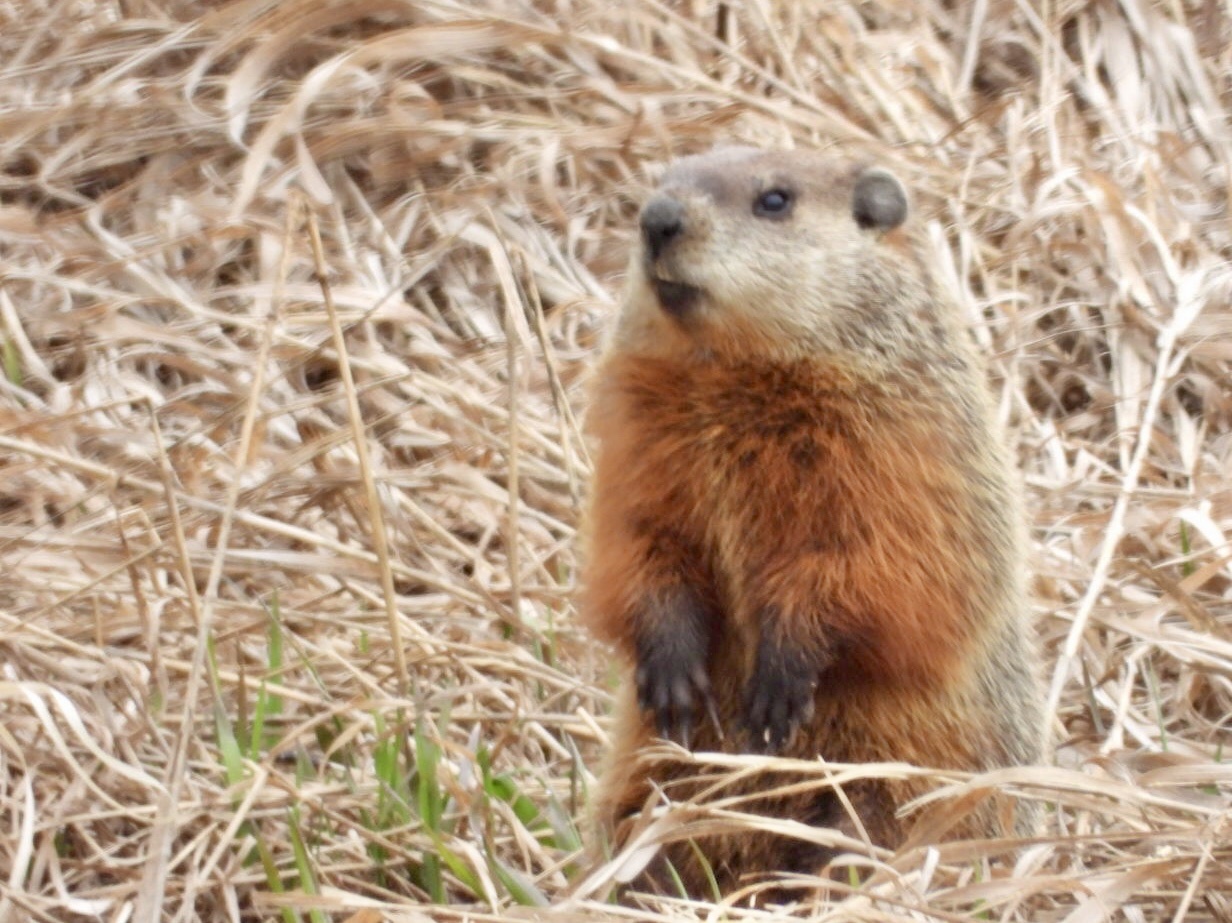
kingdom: Animalia
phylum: Chordata
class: Mammalia
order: Rodentia
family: Sciuridae
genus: Marmota
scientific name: Marmota monax
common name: Groundhog
